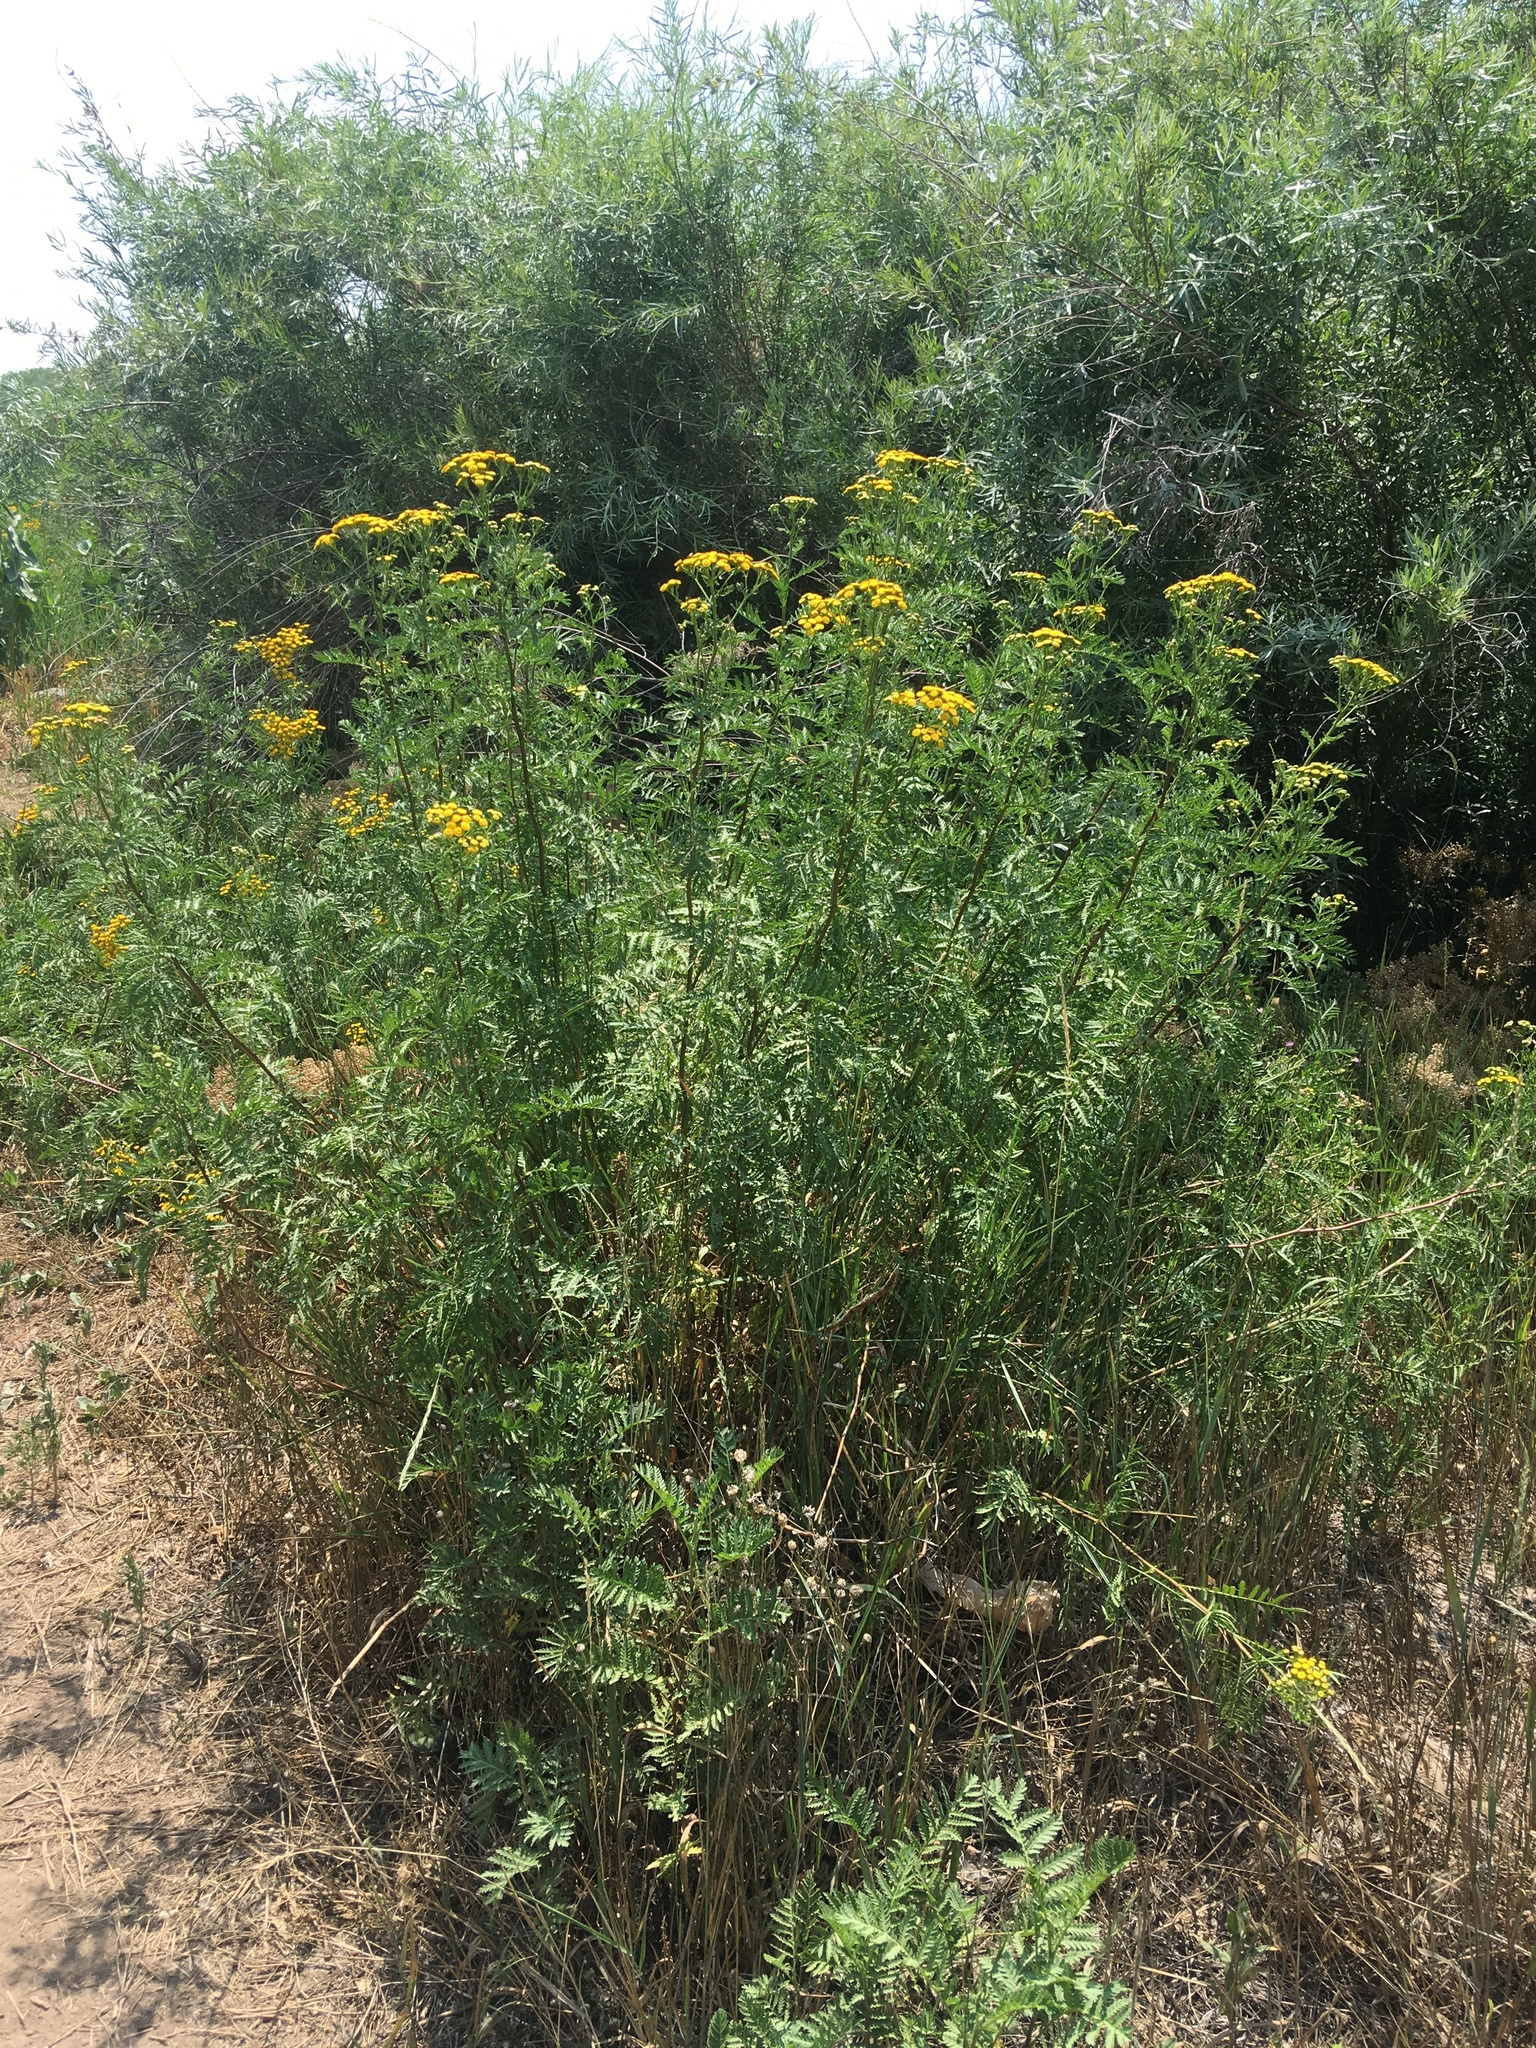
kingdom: Plantae
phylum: Tracheophyta
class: Magnoliopsida
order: Asterales
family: Asteraceae
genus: Tanacetum
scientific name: Tanacetum vulgare
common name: Common tansy
